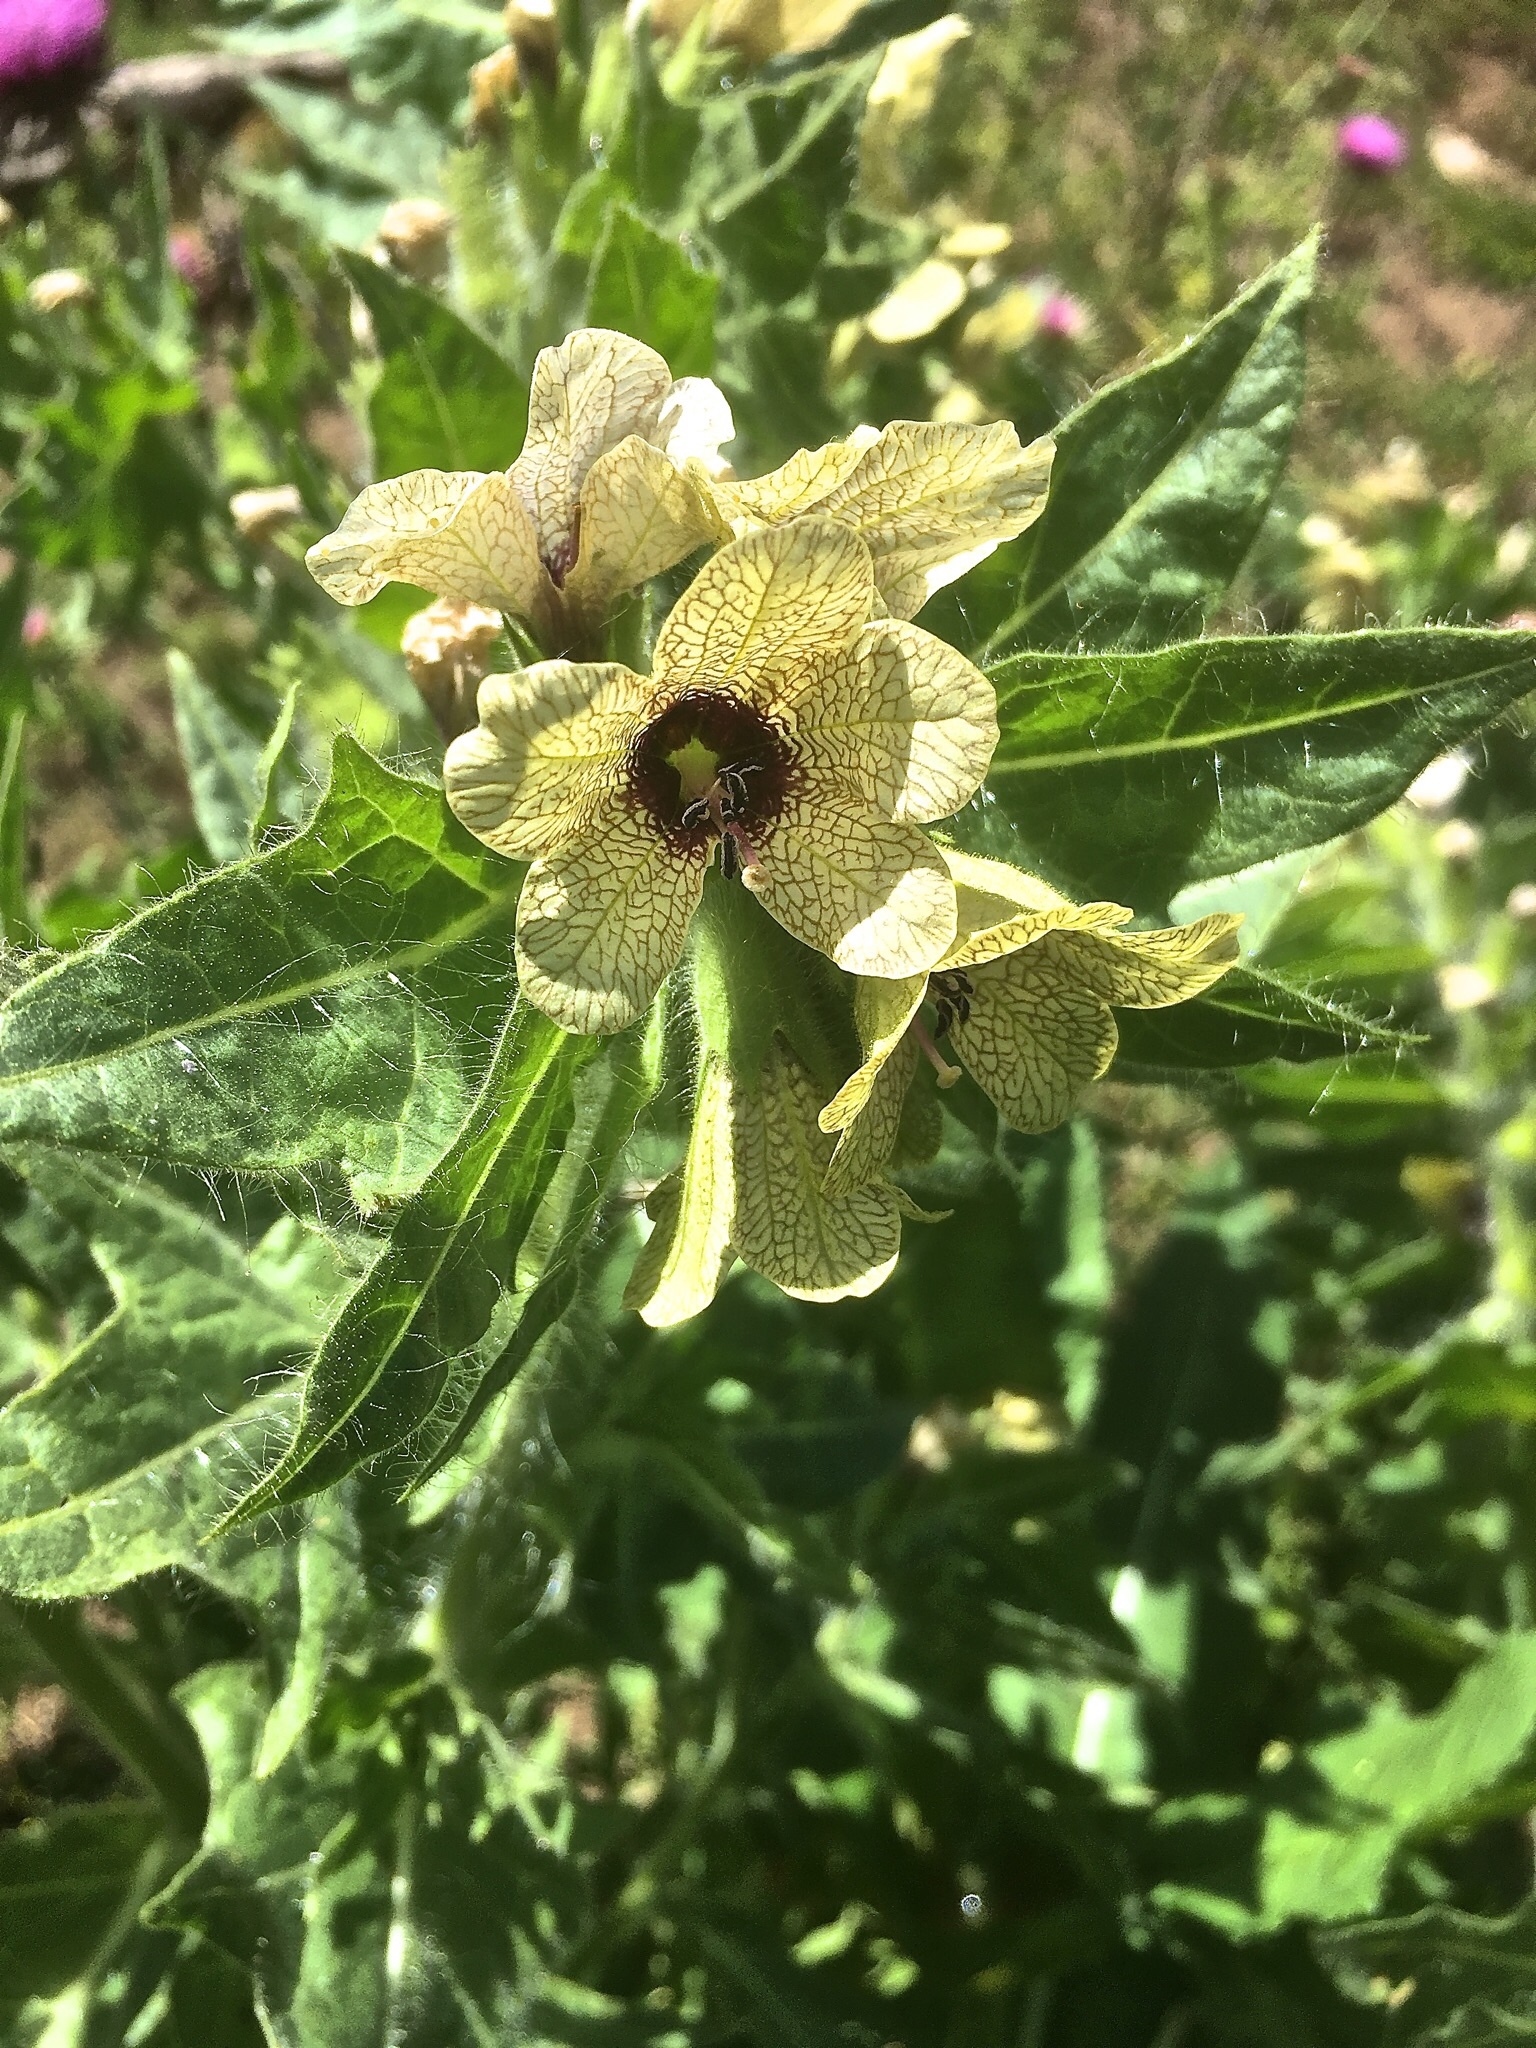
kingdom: Plantae
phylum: Tracheophyta
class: Magnoliopsida
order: Solanales
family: Solanaceae
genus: Hyoscyamus
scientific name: Hyoscyamus niger
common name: Henbane
